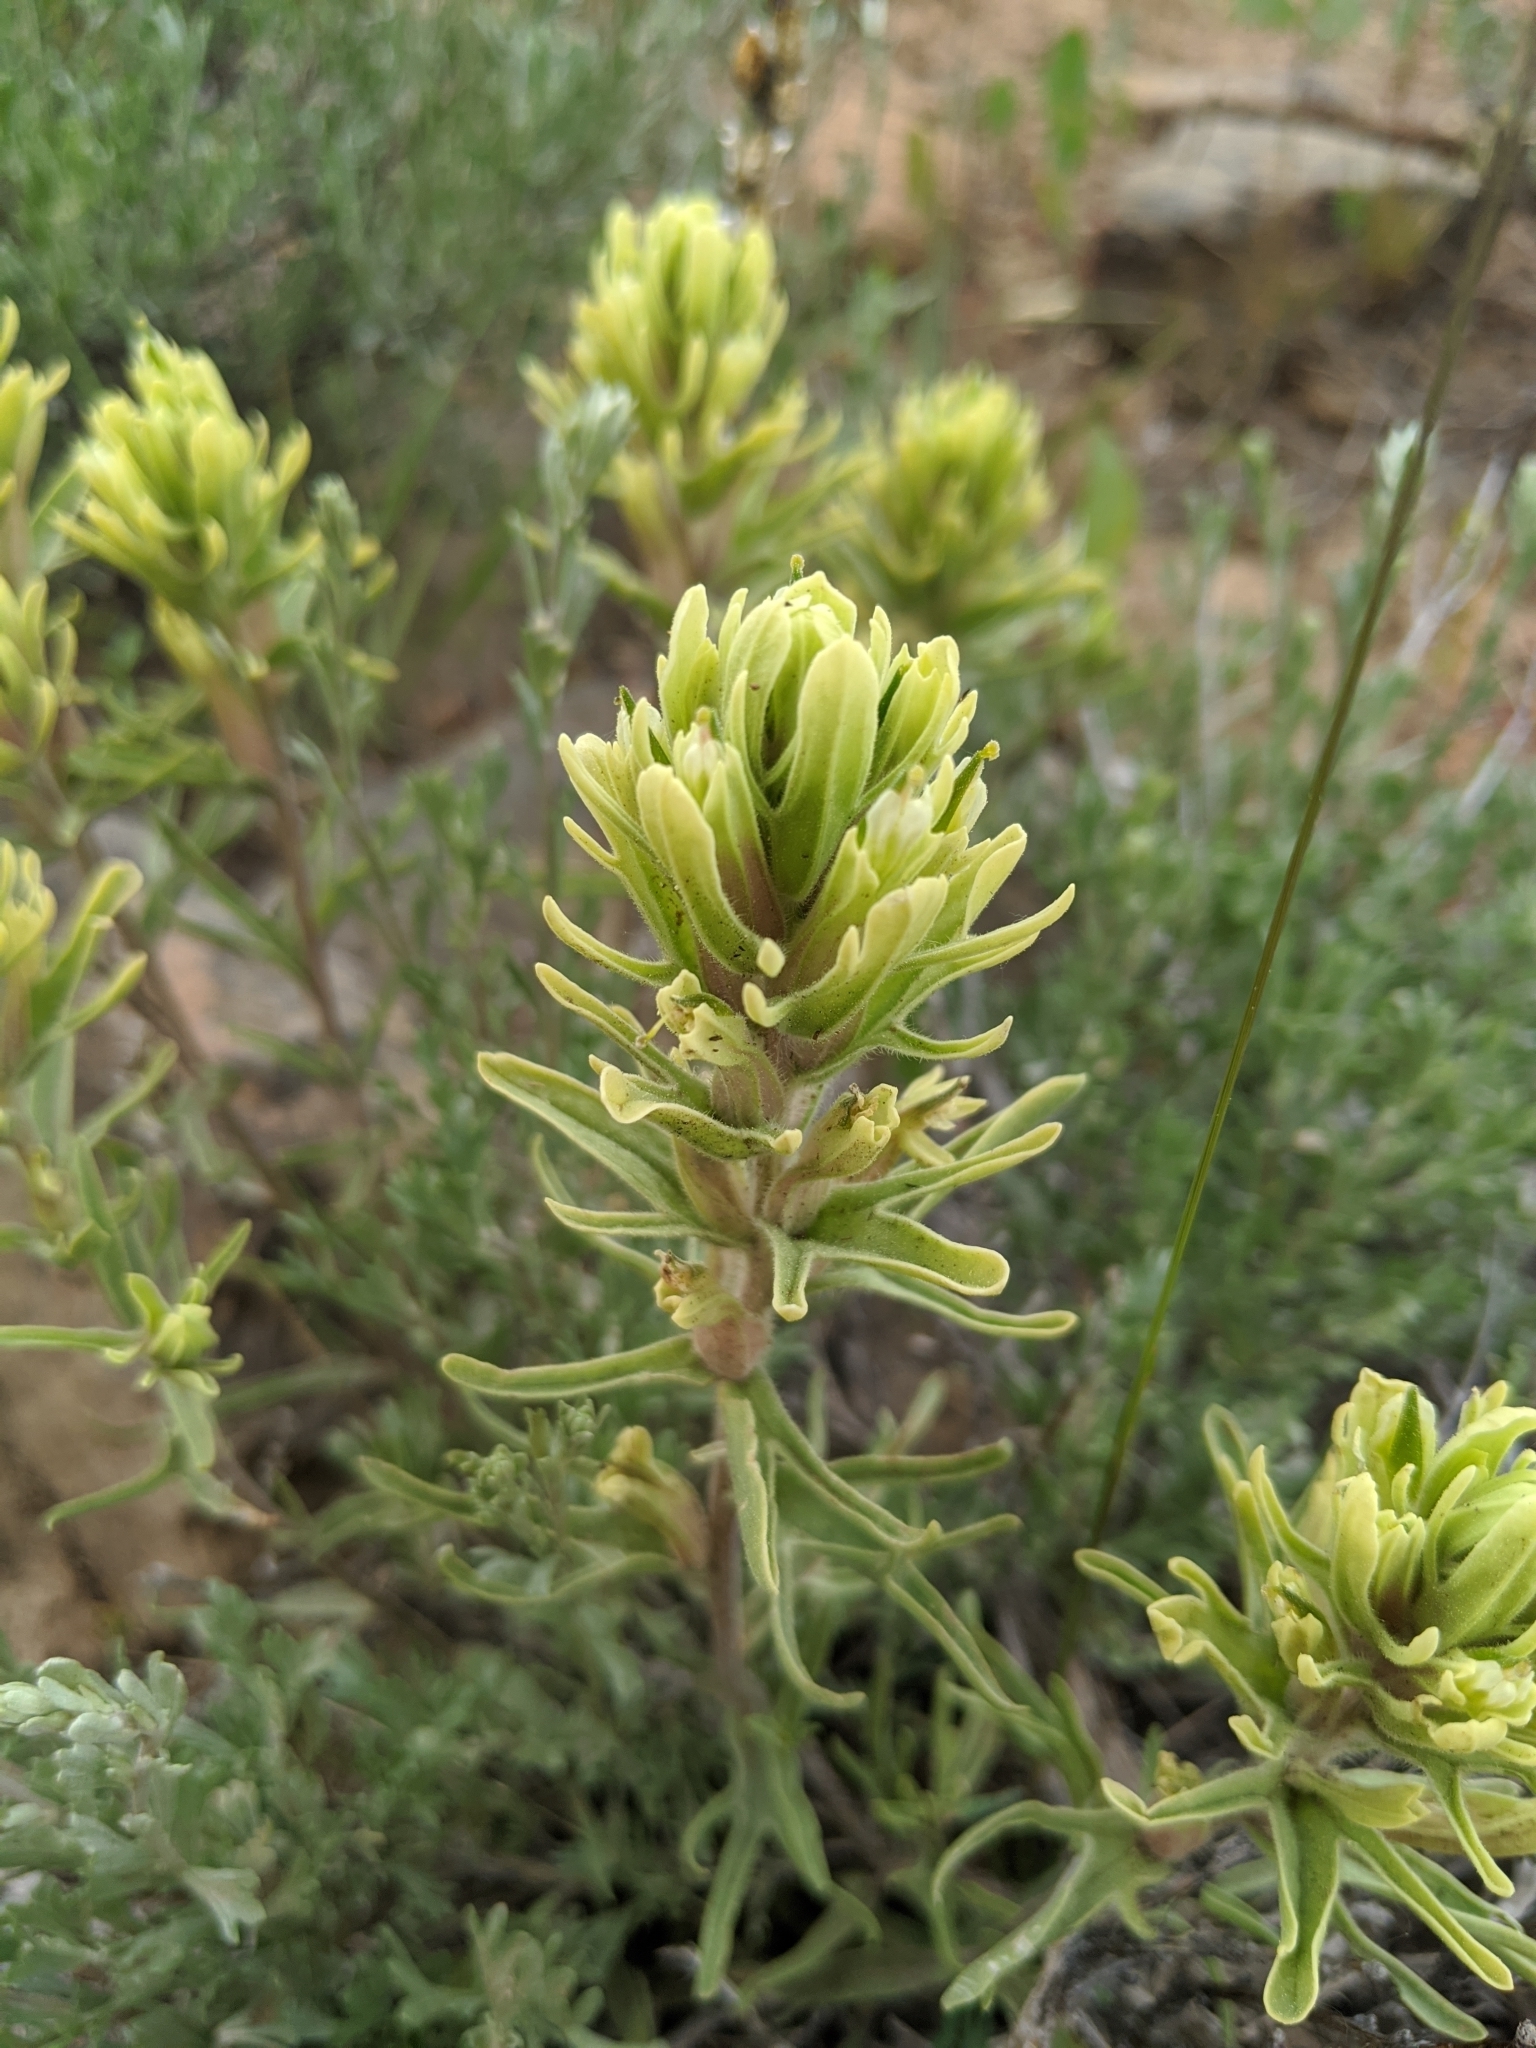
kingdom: Plantae
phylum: Tracheophyta
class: Magnoliopsida
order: Lamiales
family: Orobanchaceae
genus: Castilleja
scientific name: Castilleja thompsonii
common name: Thompson's paintbrush
